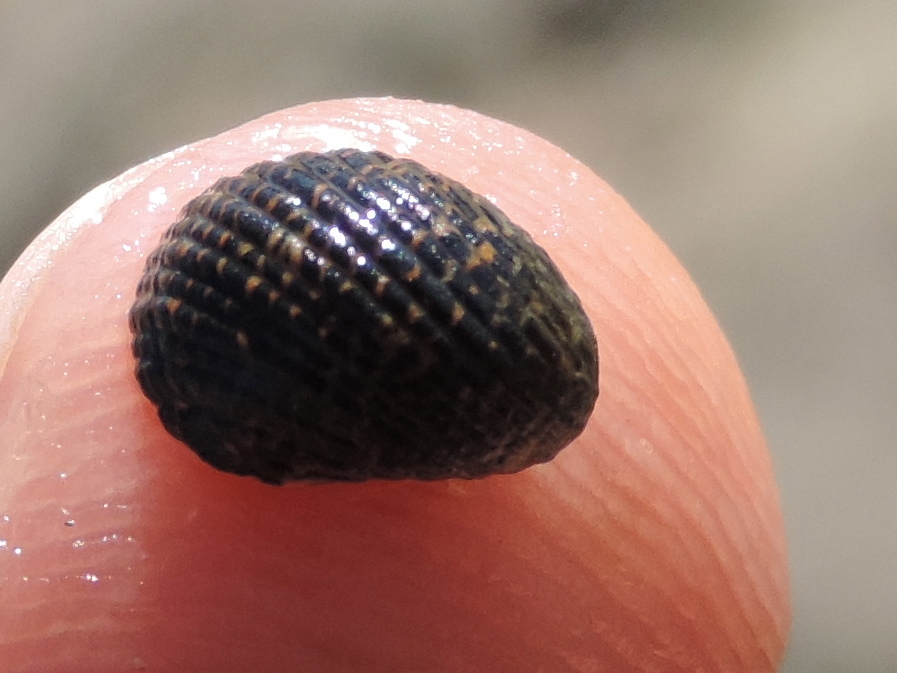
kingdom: Animalia
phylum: Mollusca
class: Gastropoda
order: Cycloneritida
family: Neritidae
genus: Nerita
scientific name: Nerita funiculata
